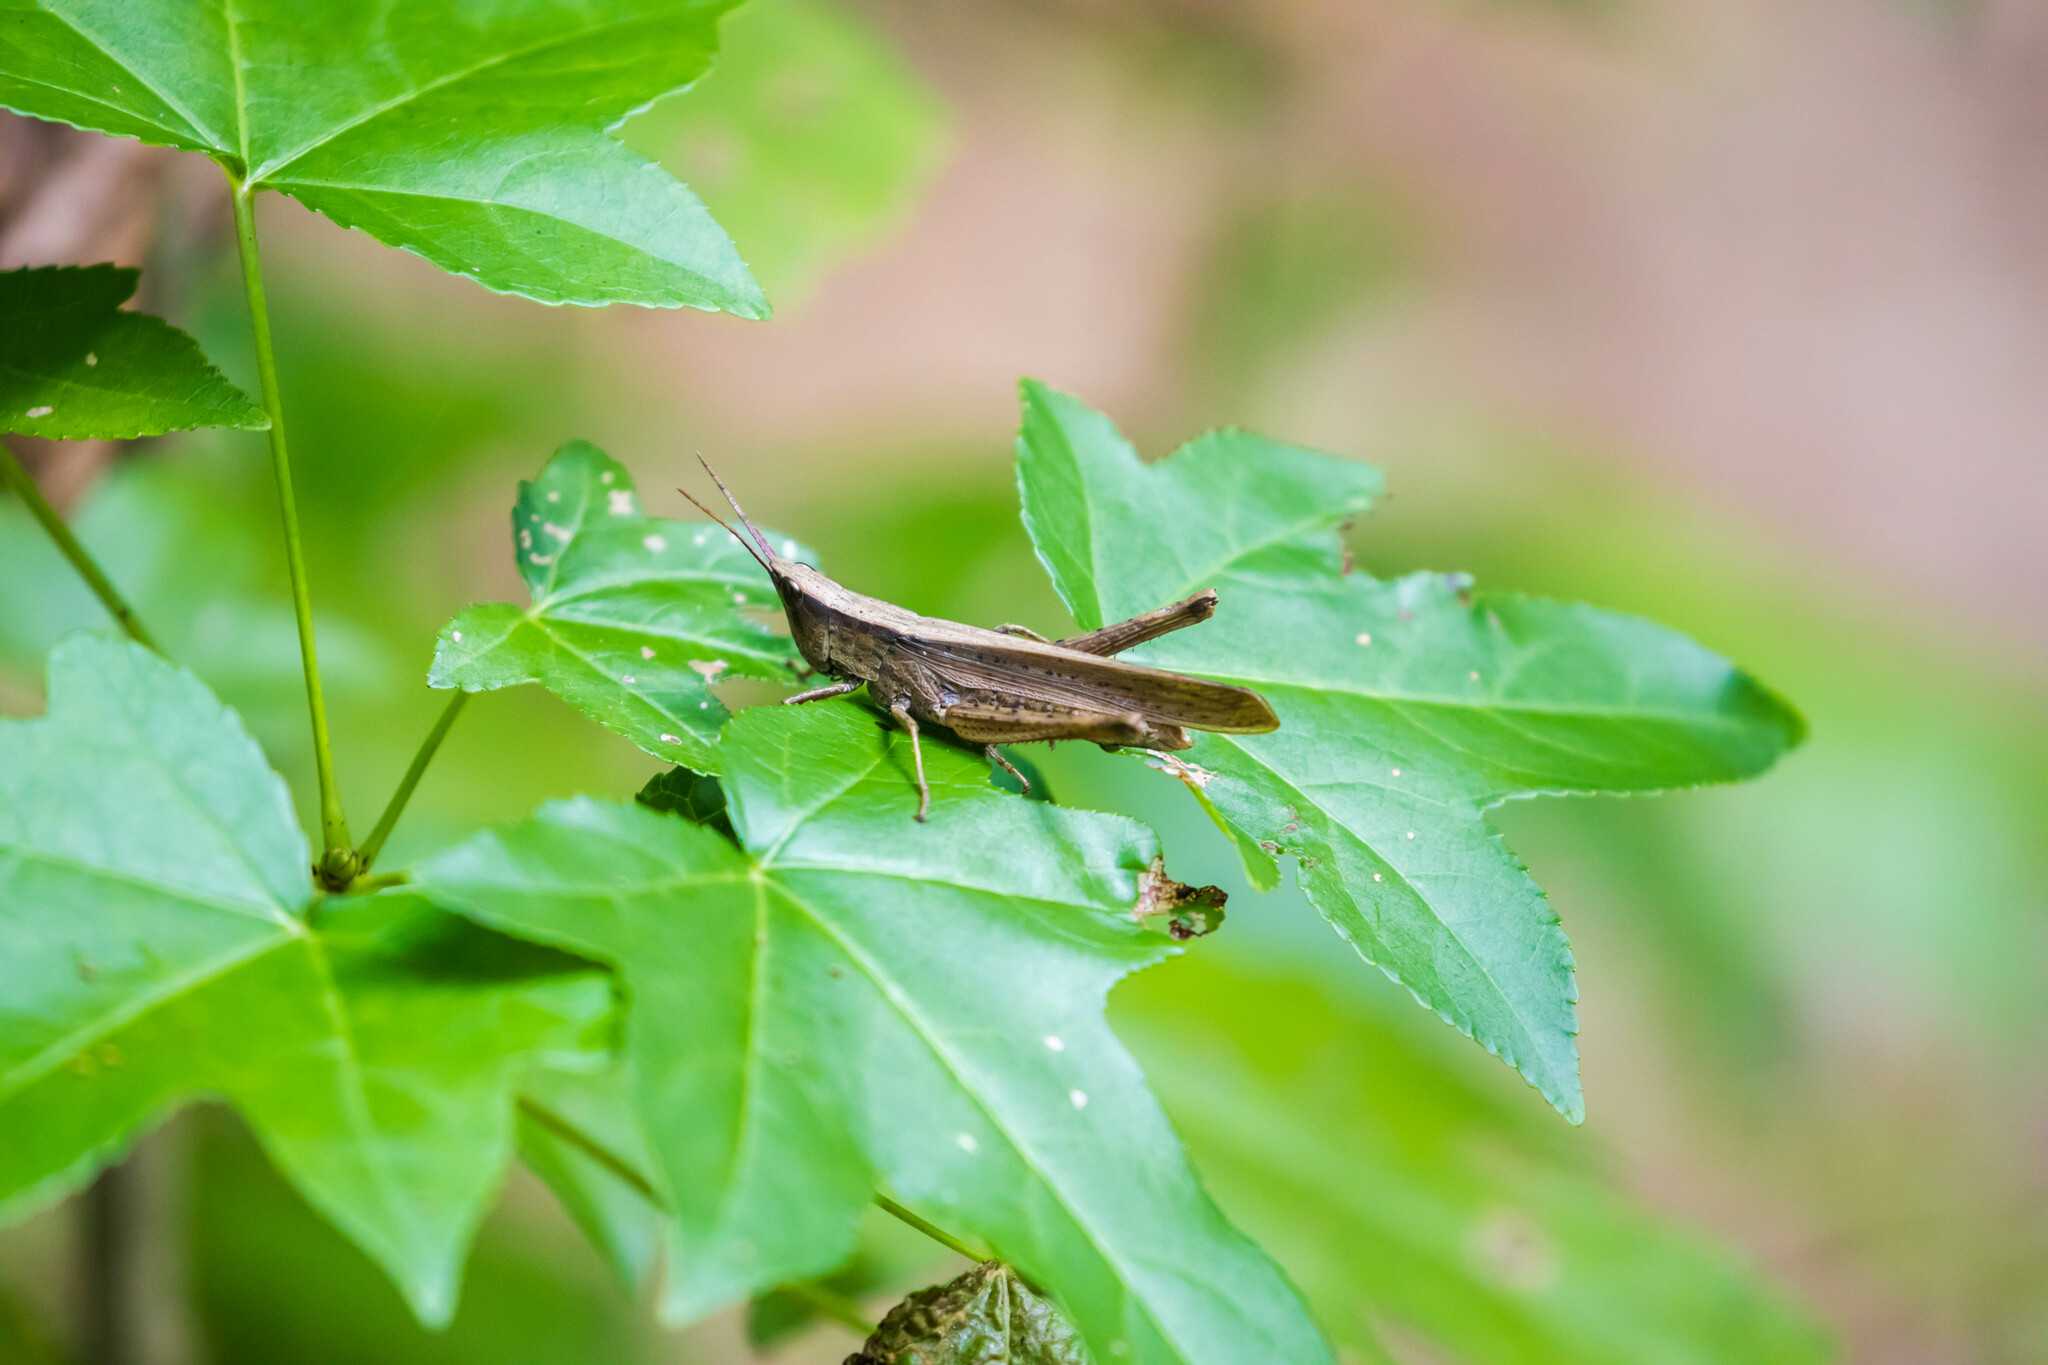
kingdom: Animalia
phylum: Arthropoda
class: Insecta
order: Orthoptera
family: Acrididae
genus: Metaleptea
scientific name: Metaleptea brevicornis
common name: Clipped-wing grasshopper
